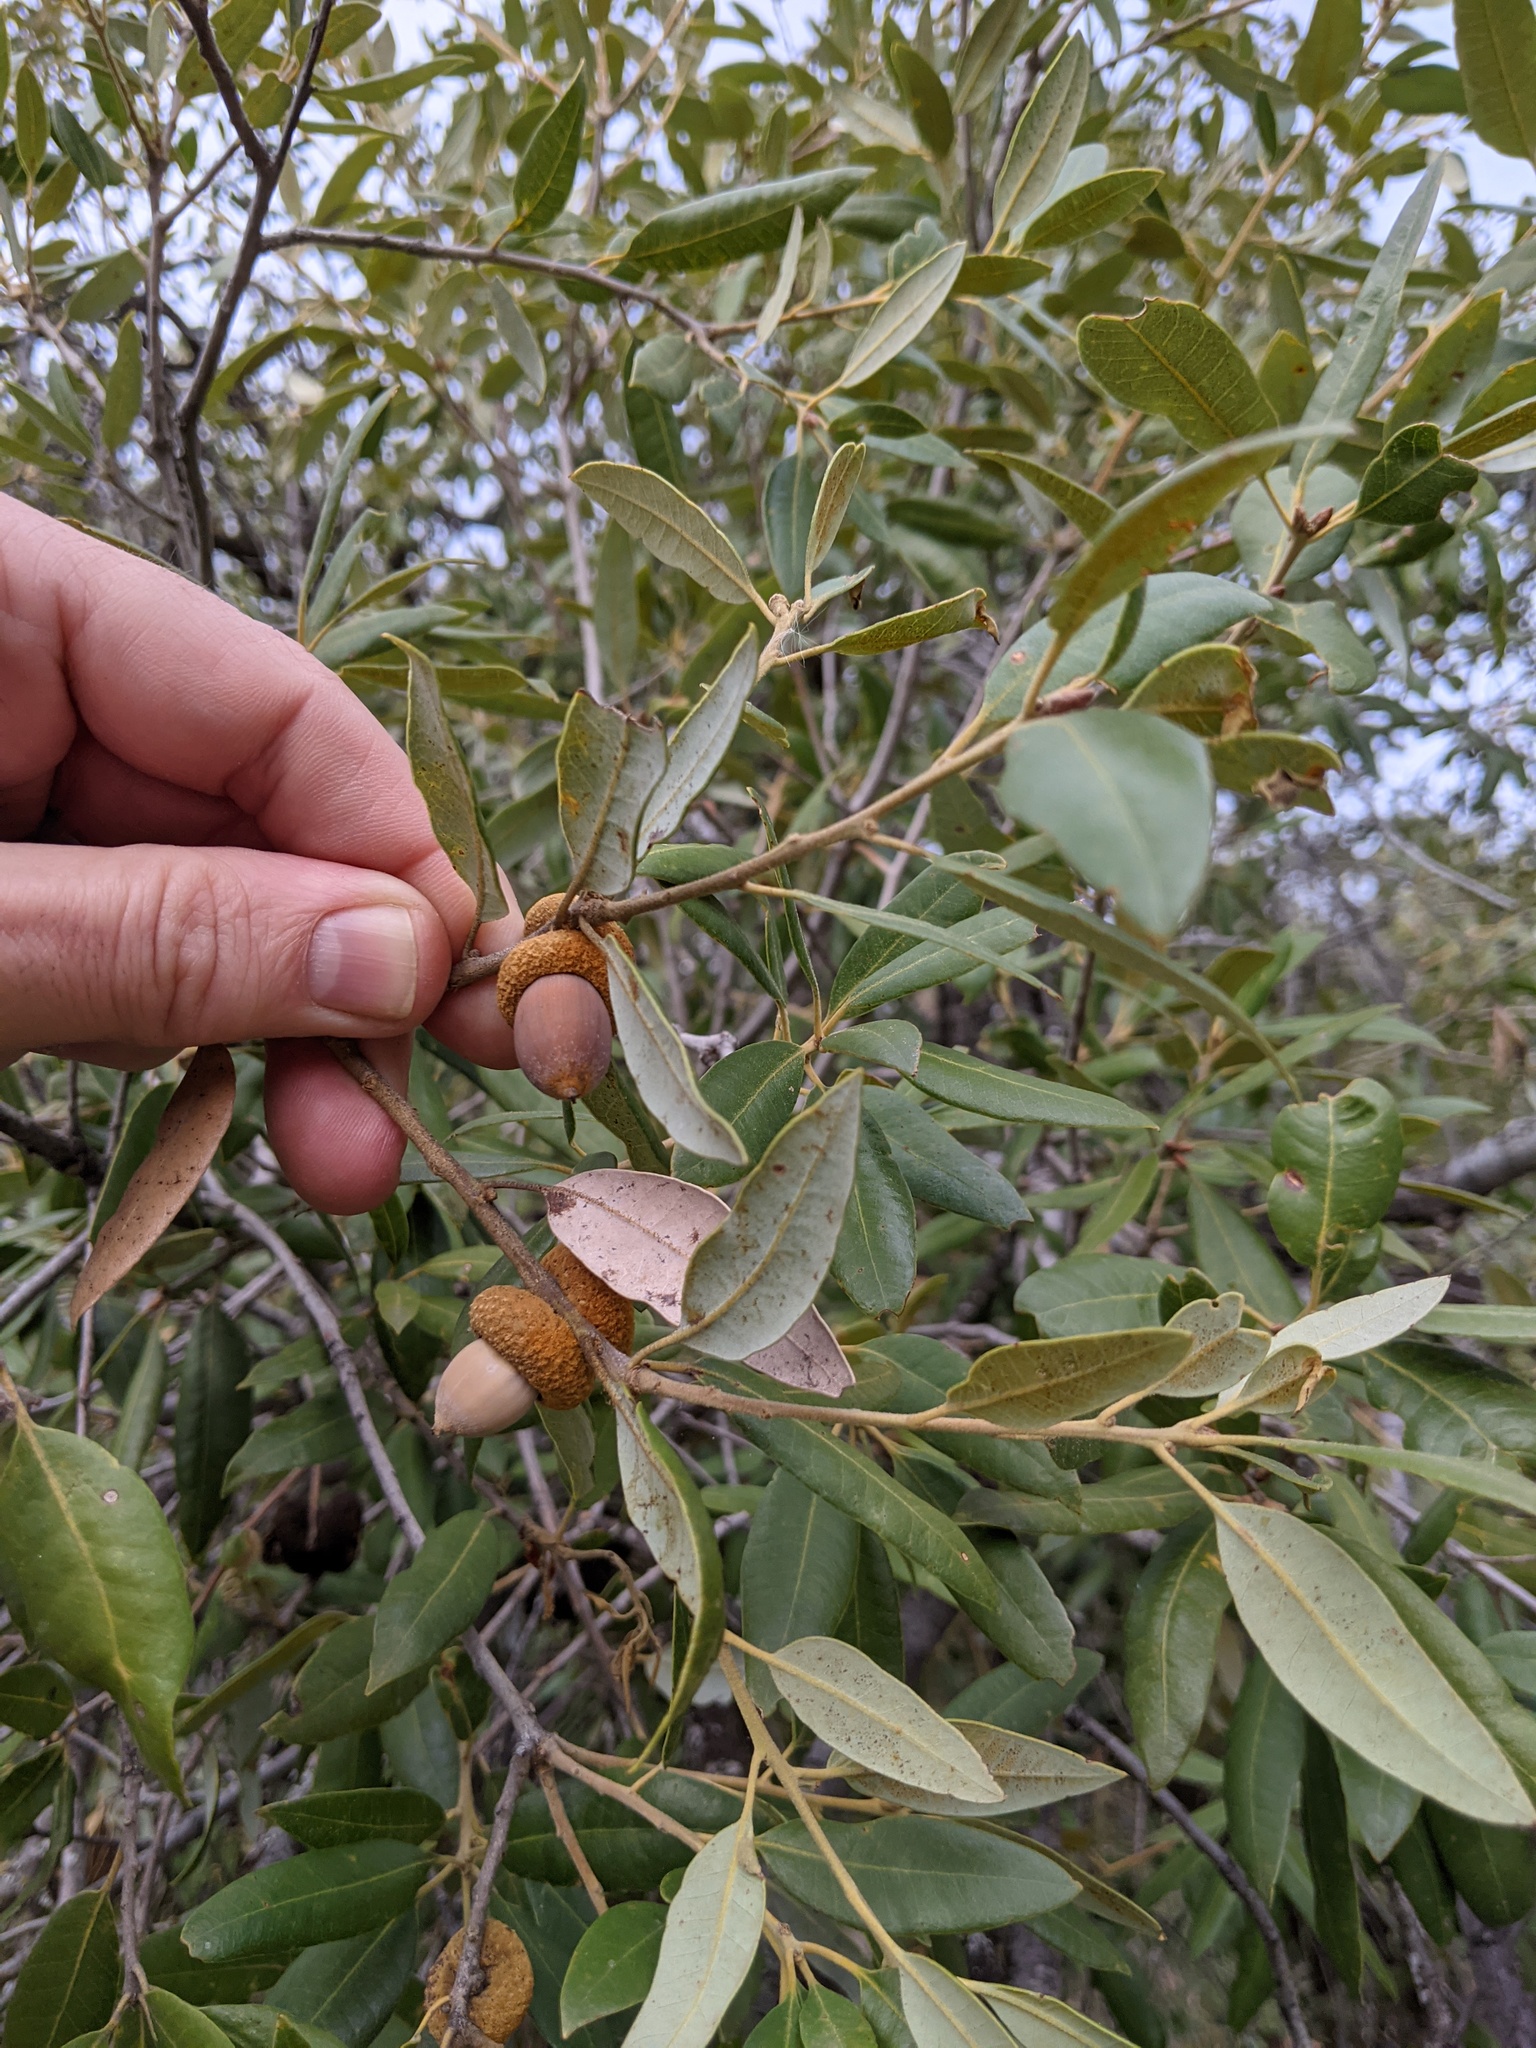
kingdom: Plantae
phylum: Tracheophyta
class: Magnoliopsida
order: Fagales
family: Fagaceae
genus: Quercus
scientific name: Quercus chrysolepis
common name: Canyon live oak
